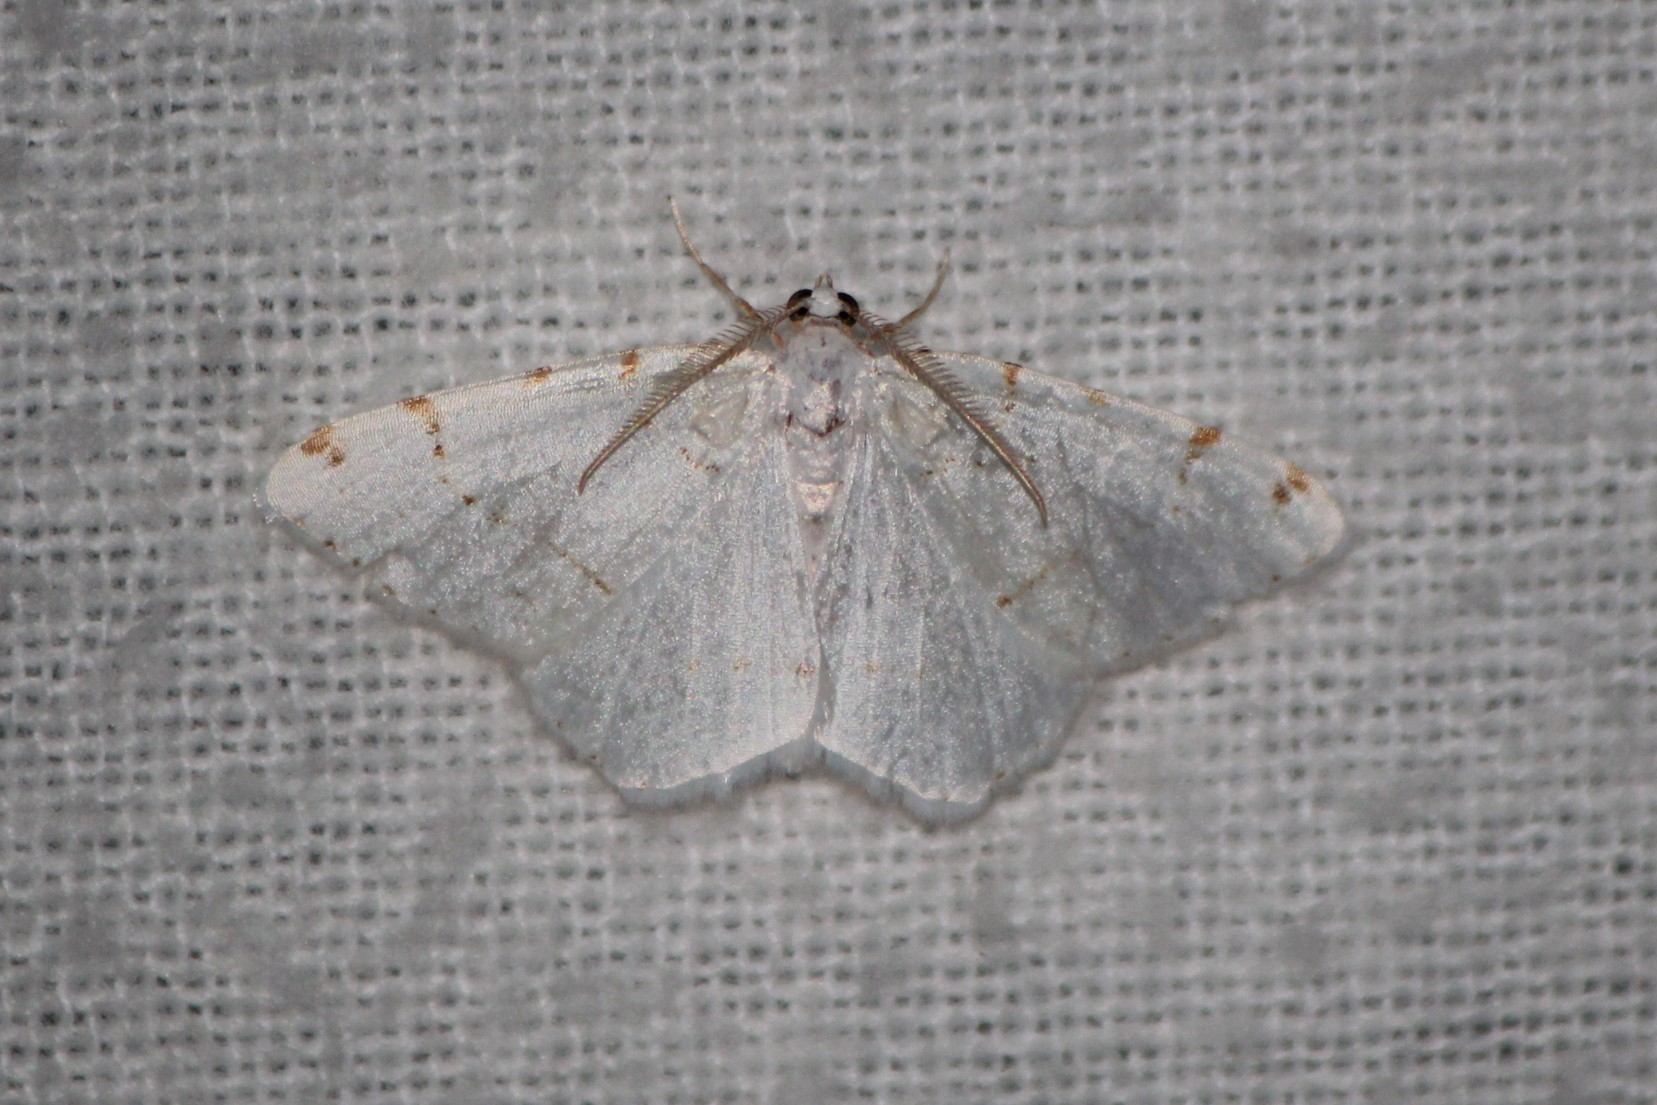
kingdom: Animalia
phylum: Arthropoda
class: Insecta
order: Lepidoptera
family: Geometridae
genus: Macaria
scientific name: Macaria pustularia
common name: Lesser maple spanworm moth
